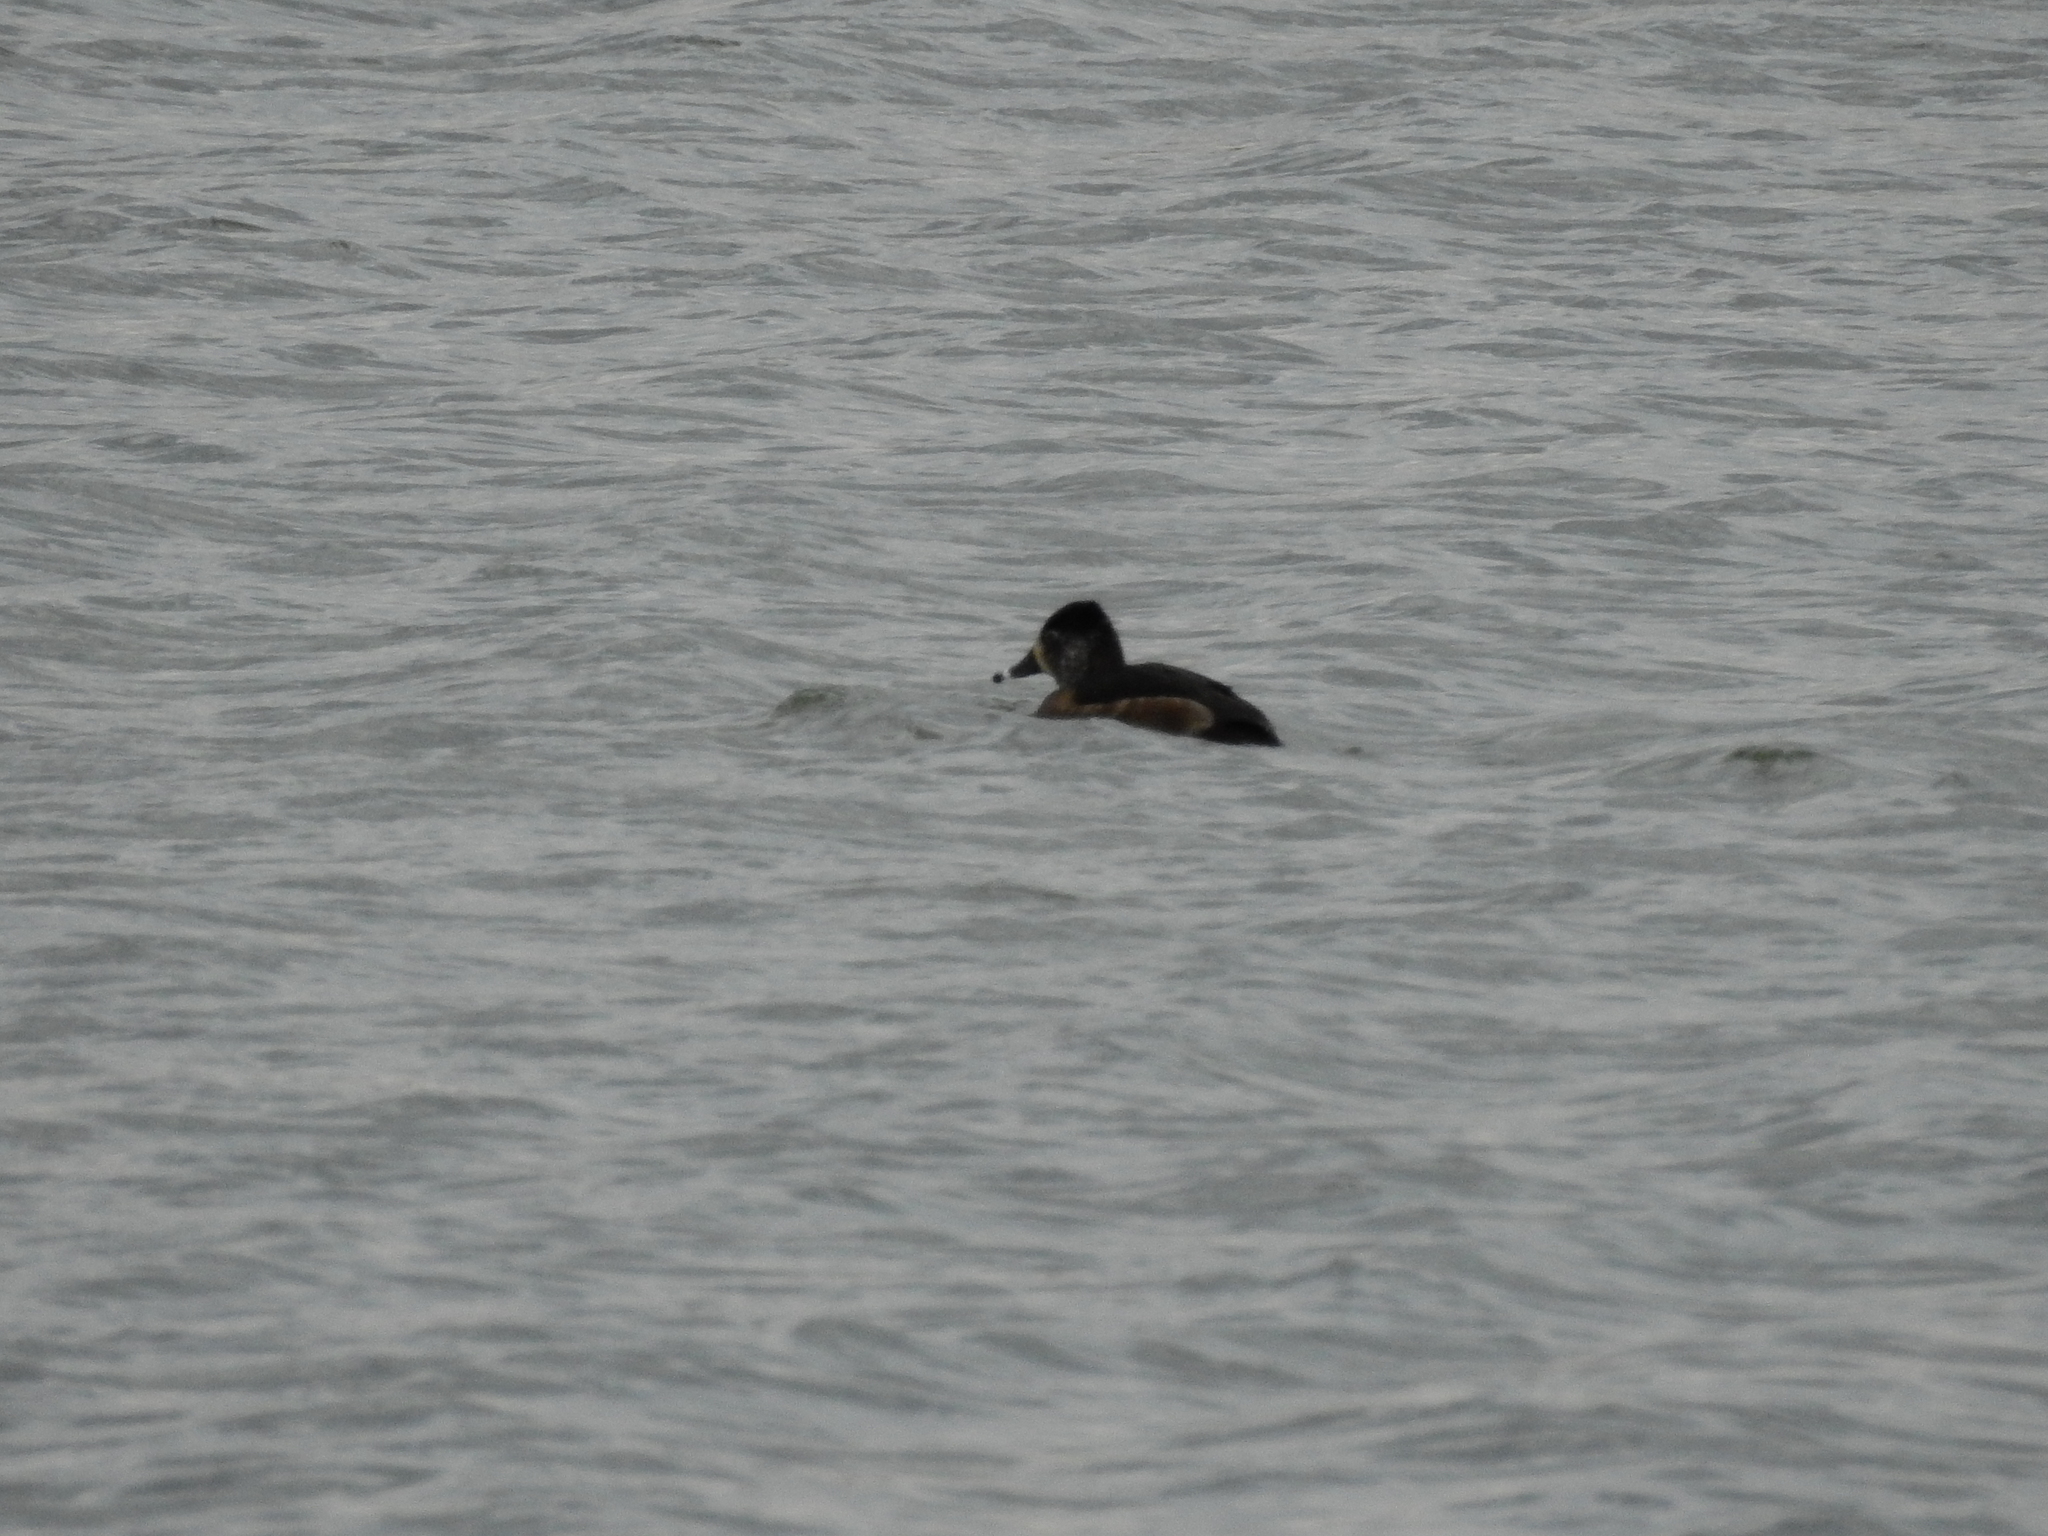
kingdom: Animalia
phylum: Chordata
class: Aves
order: Anseriformes
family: Anatidae
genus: Aythya
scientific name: Aythya collaris
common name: Ring-necked duck
